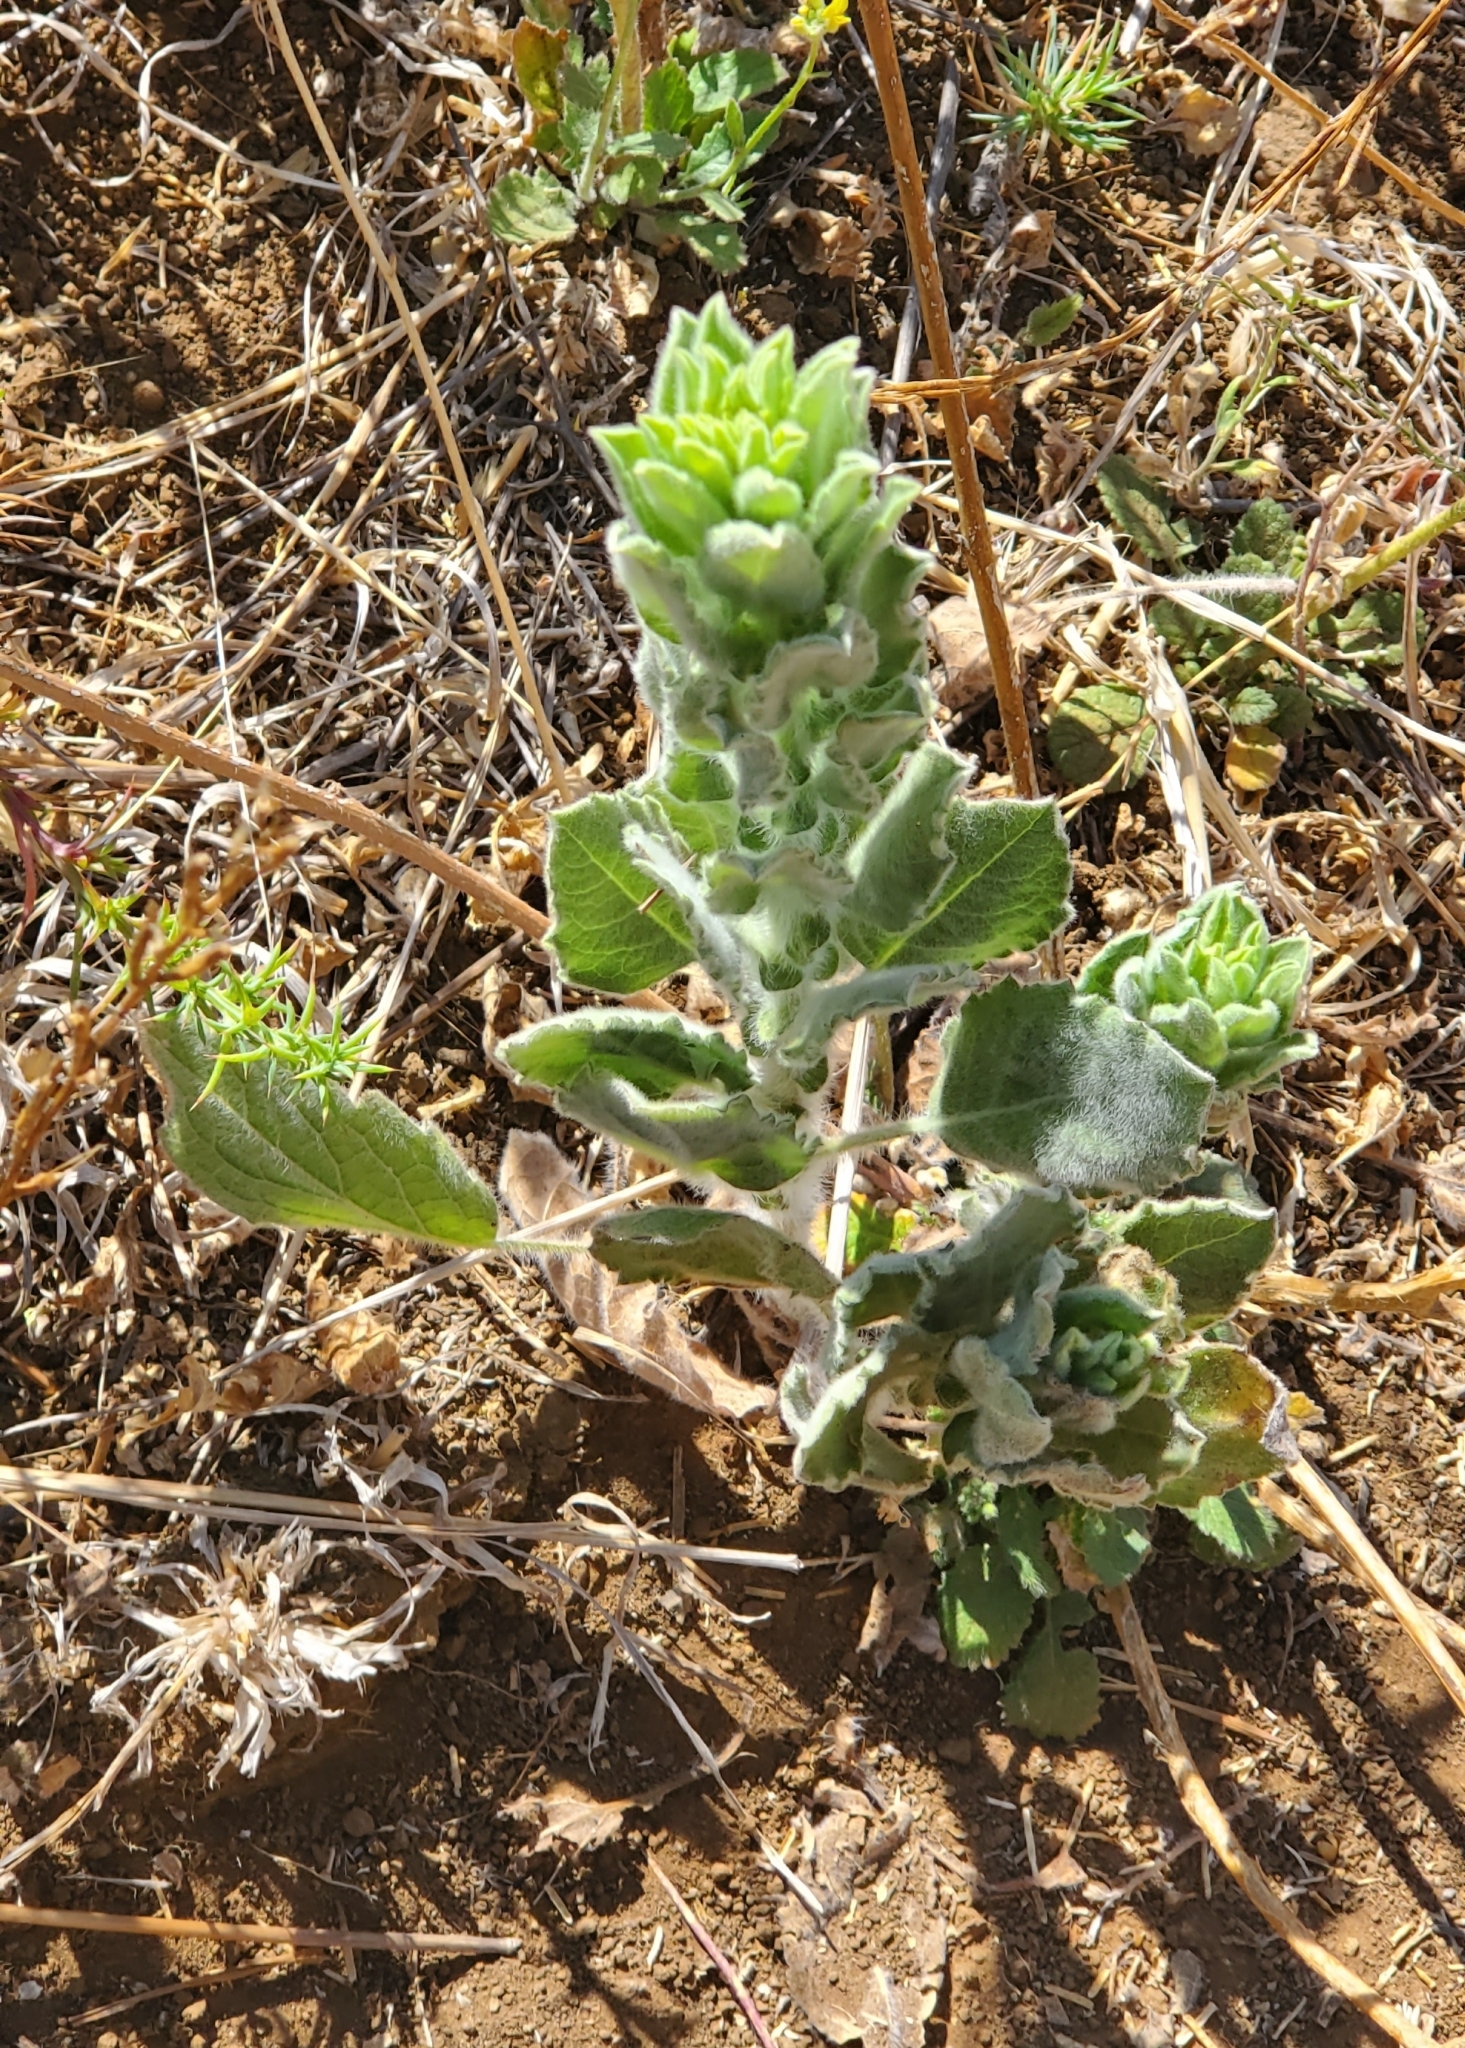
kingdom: Plantae
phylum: Tracheophyta
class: Magnoliopsida
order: Asterales
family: Asteraceae
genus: Heterotheca
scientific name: Heterotheca grandiflora
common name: Telegraphweed
